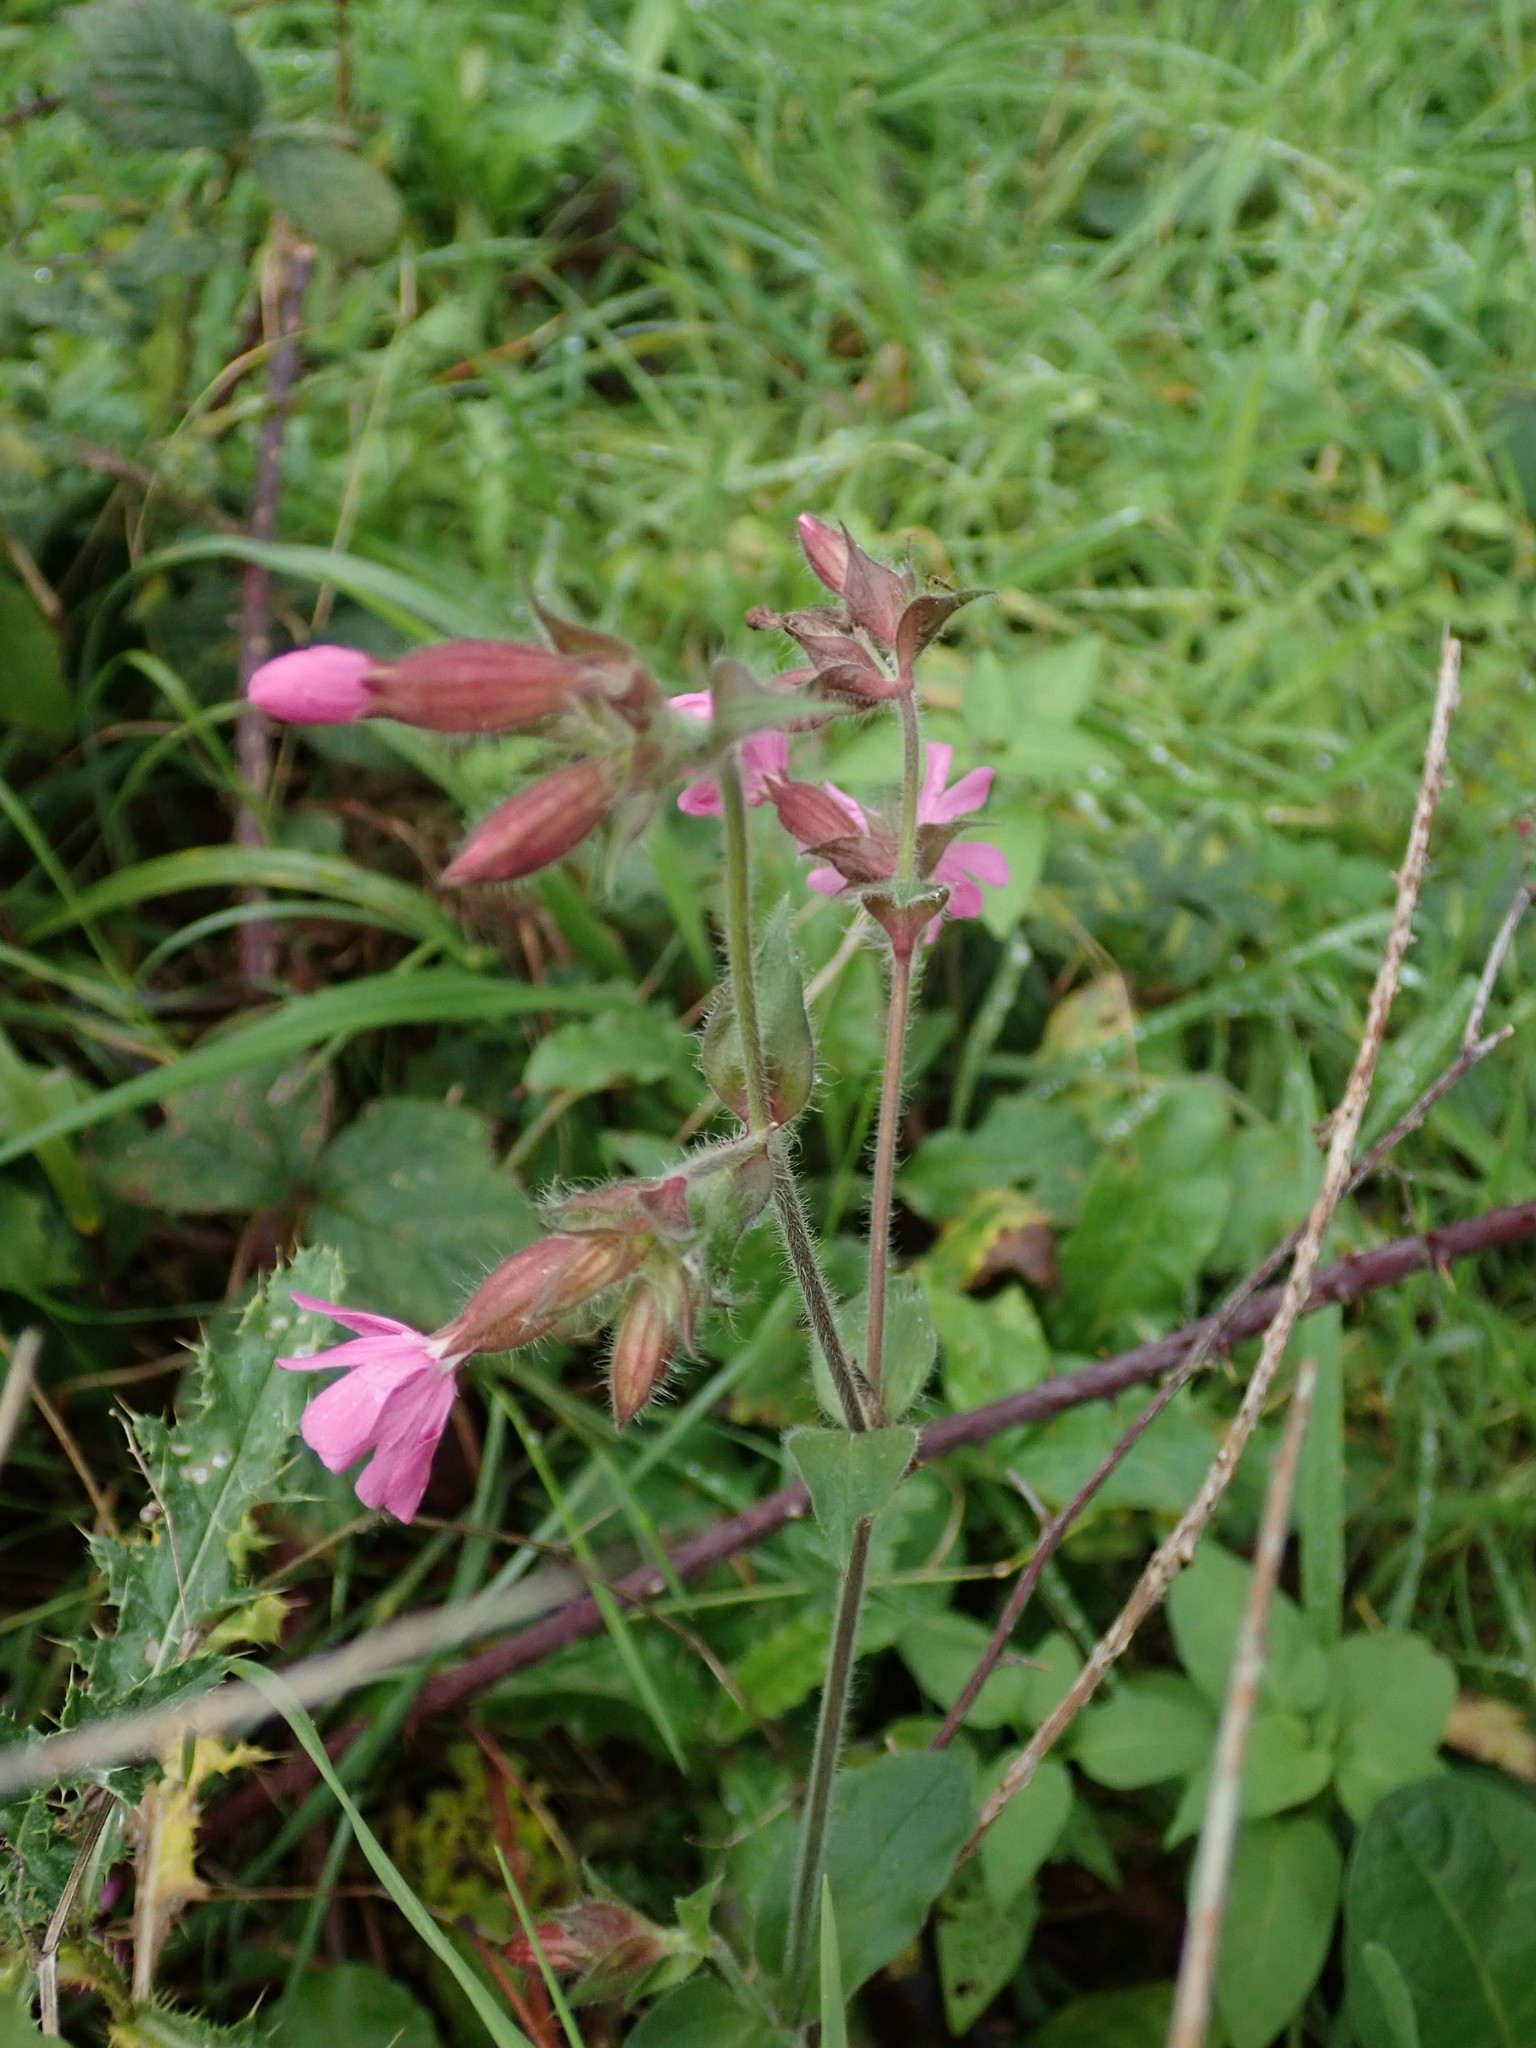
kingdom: Plantae
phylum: Tracheophyta
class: Magnoliopsida
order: Caryophyllales
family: Caryophyllaceae
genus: Silene
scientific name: Silene dioica
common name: Red campion
